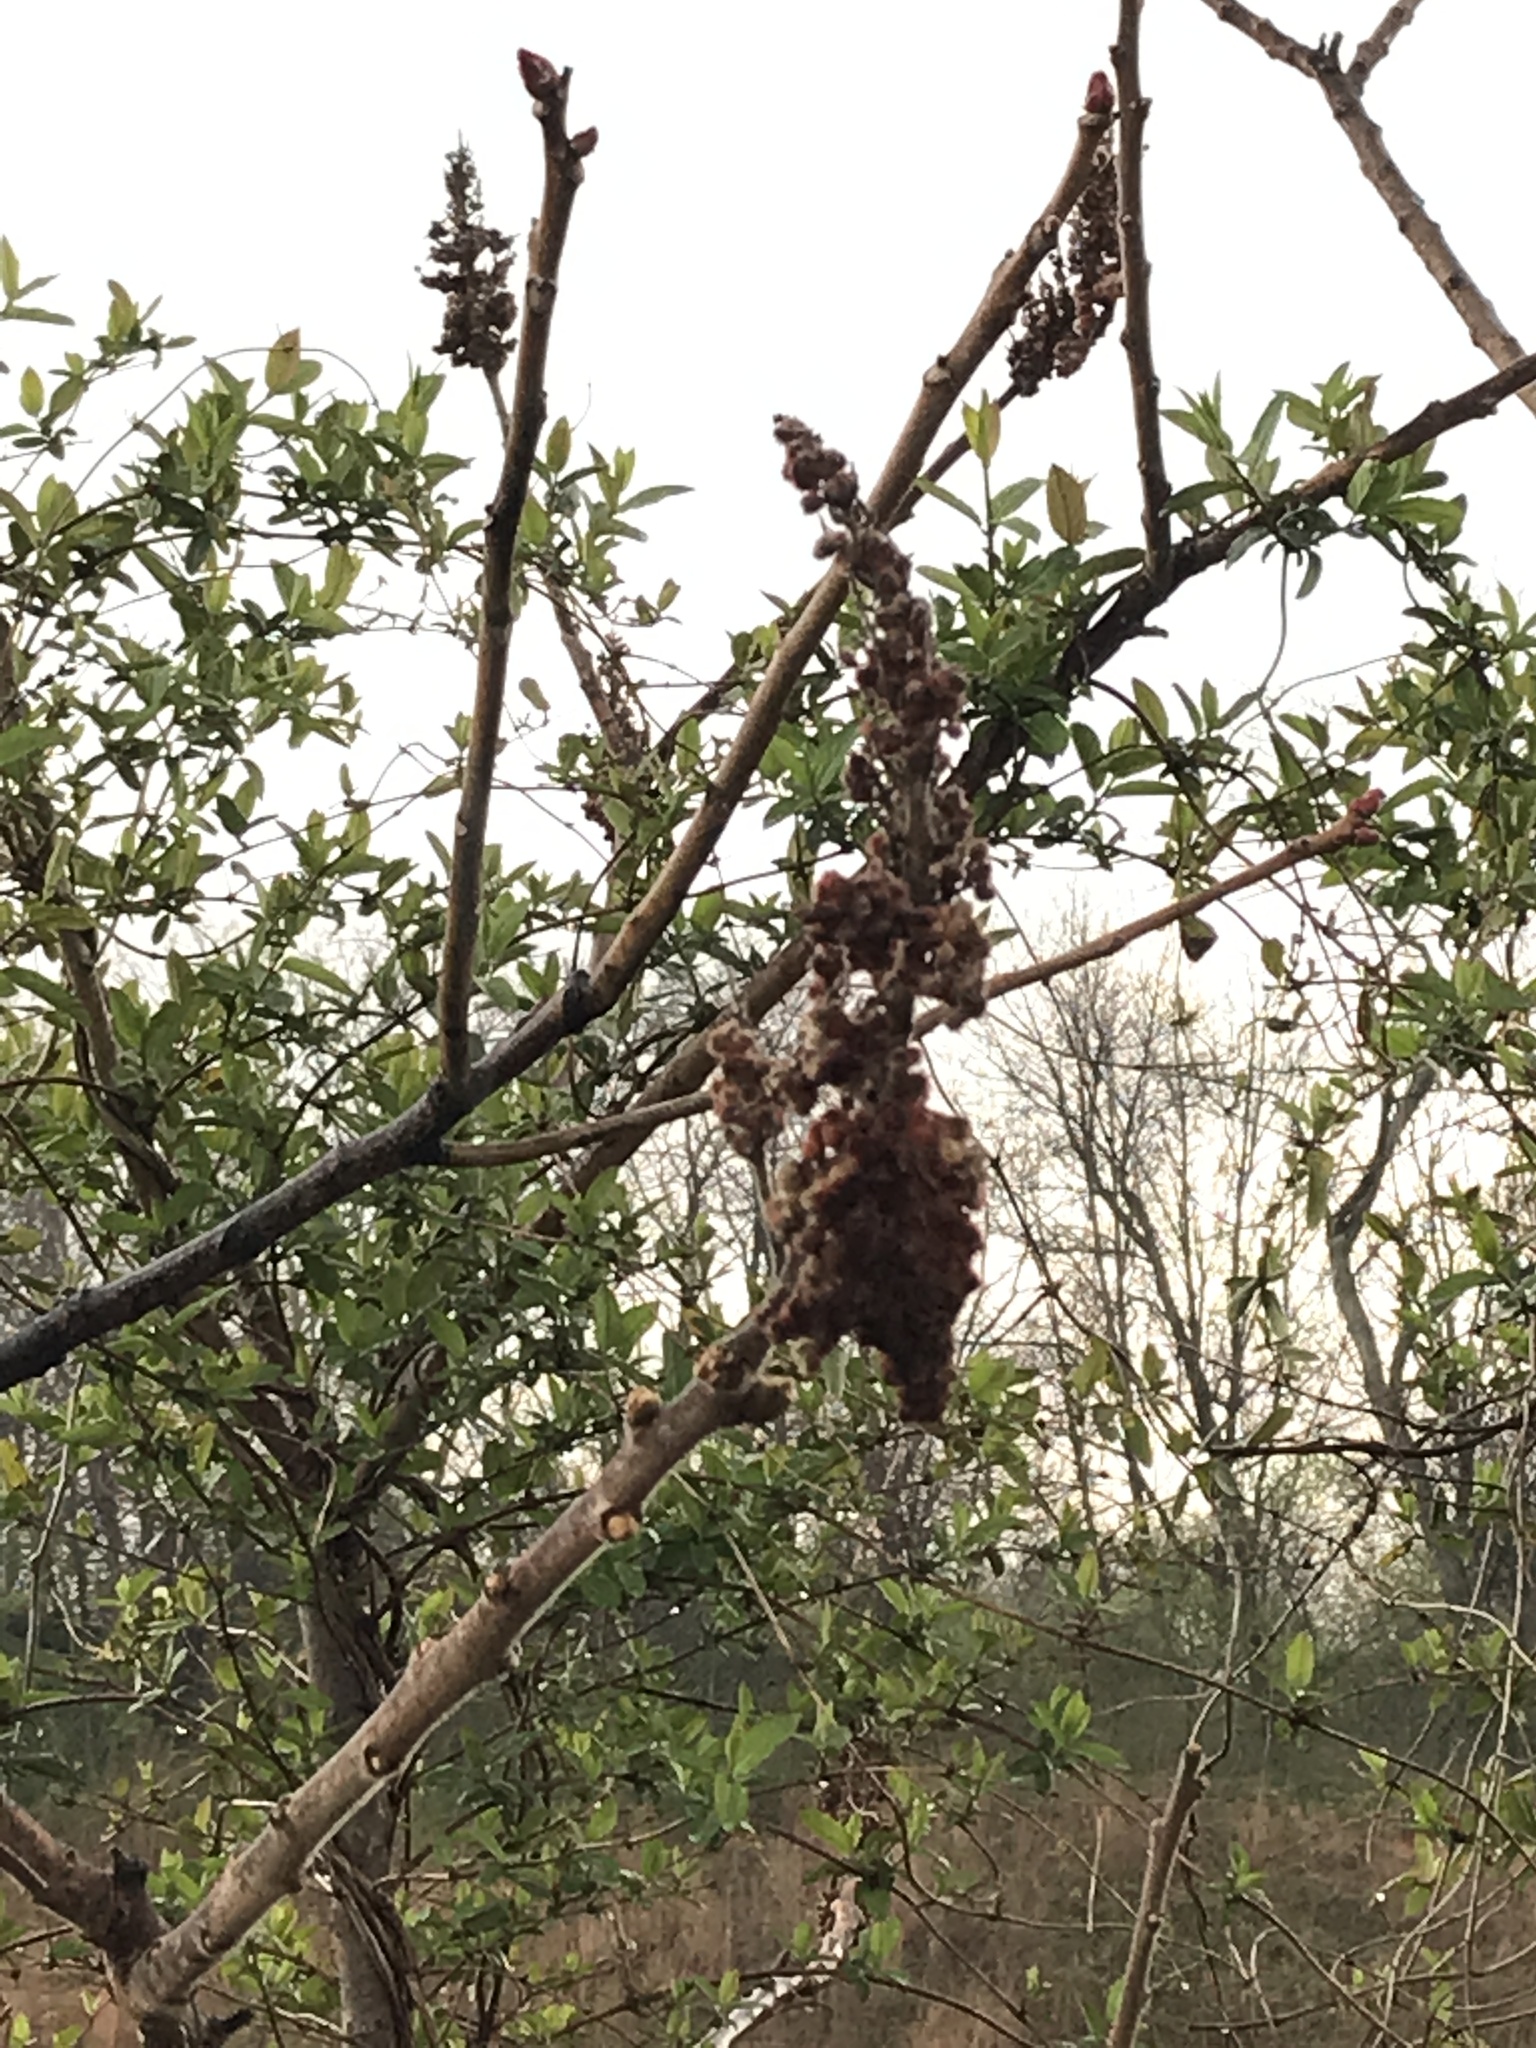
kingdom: Plantae
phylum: Tracheophyta
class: Magnoliopsida
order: Sapindales
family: Anacardiaceae
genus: Rhus
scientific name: Rhus typhina
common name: Staghorn sumac
